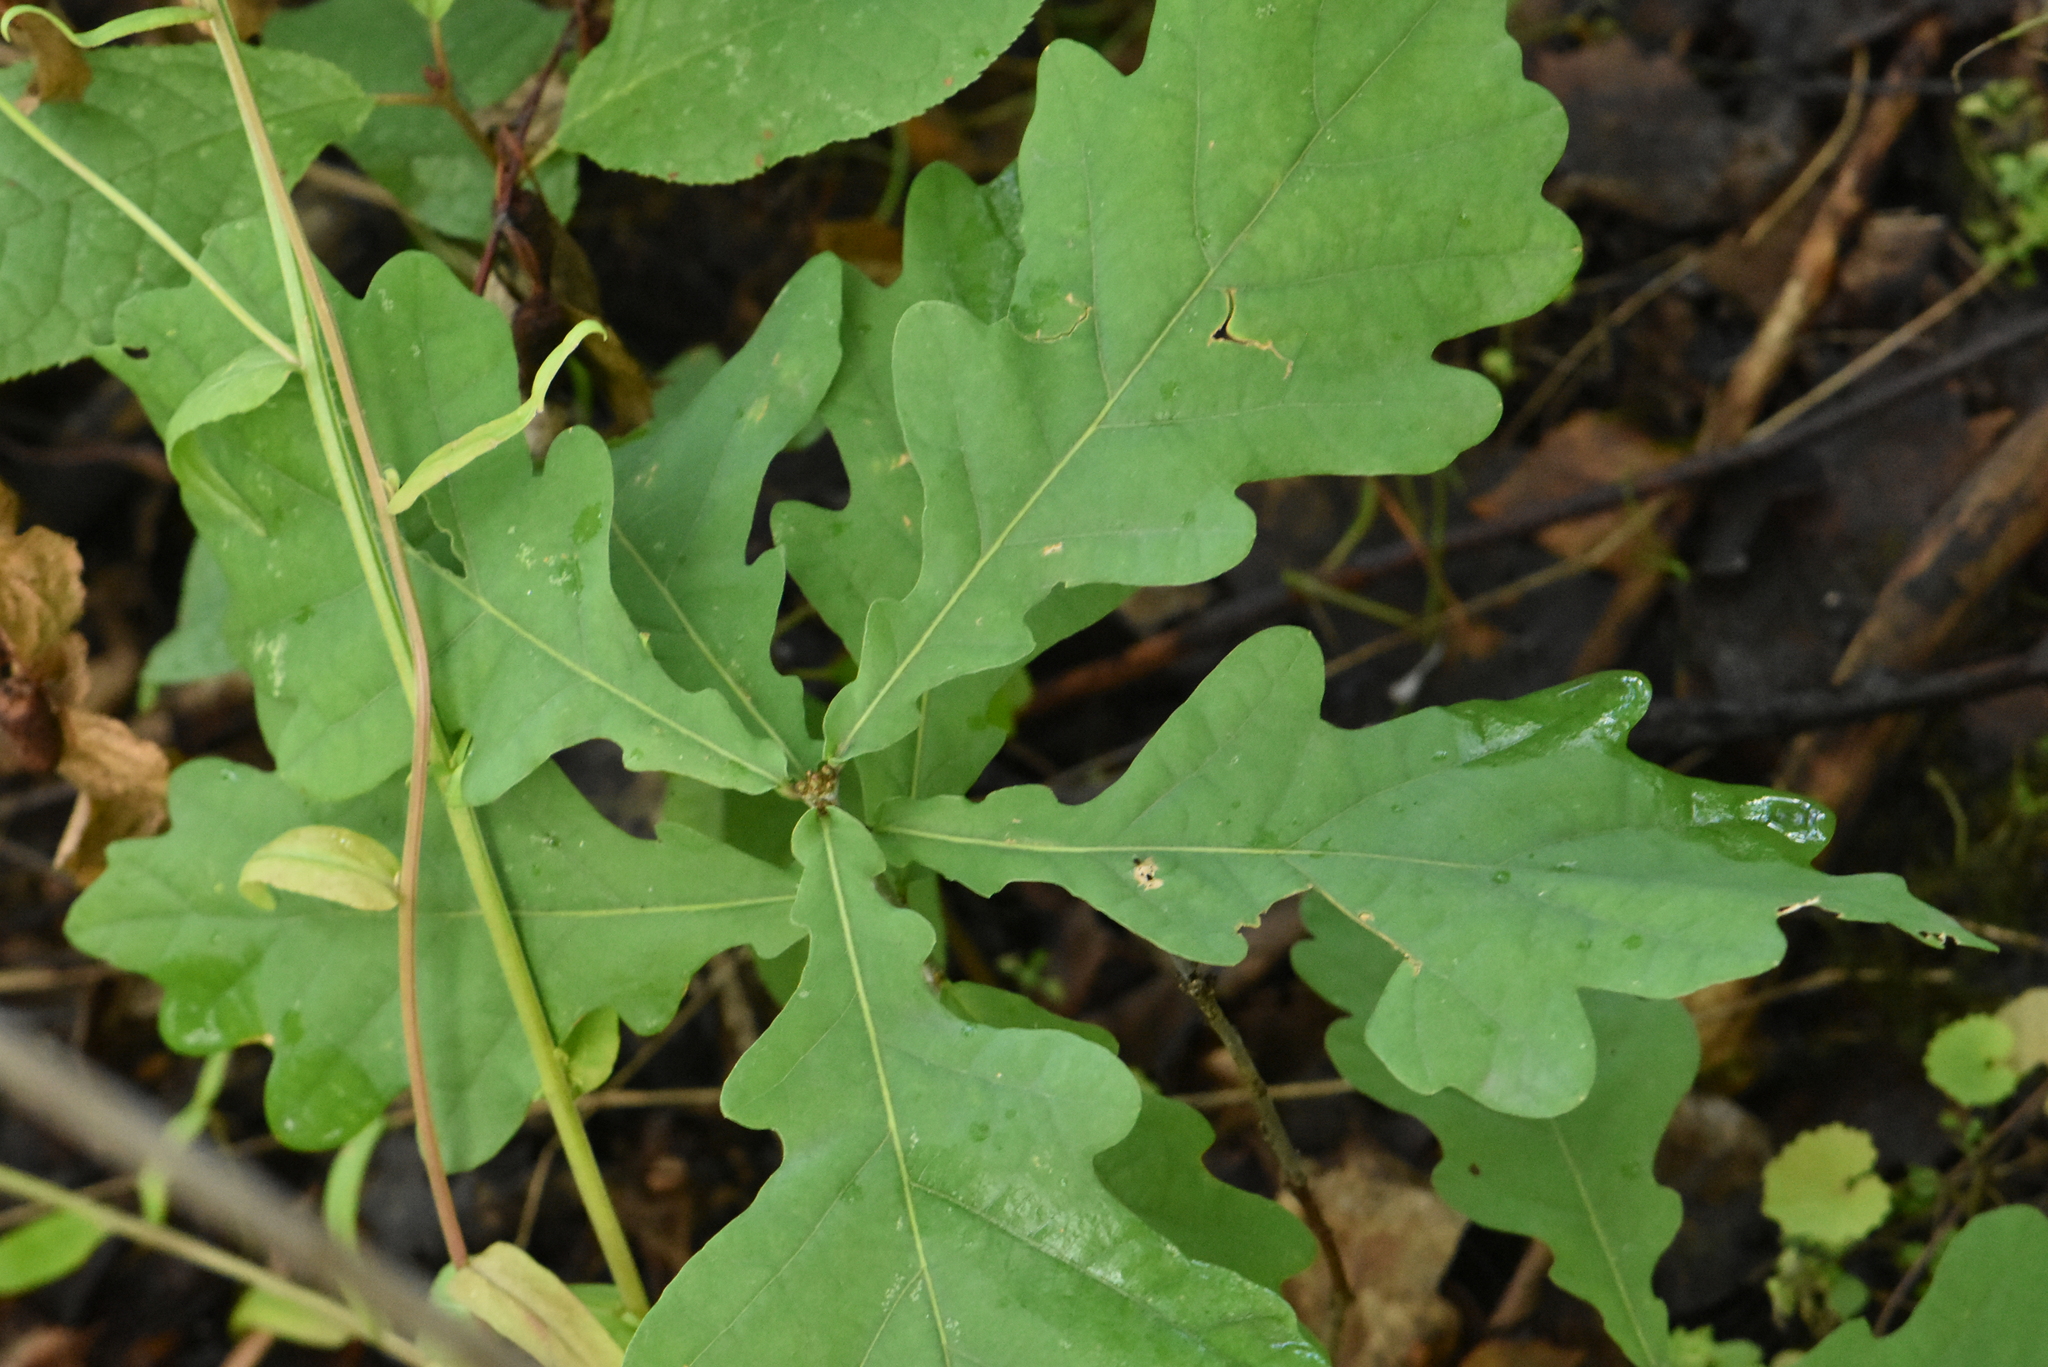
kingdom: Plantae
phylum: Tracheophyta
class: Magnoliopsida
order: Fagales
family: Fagaceae
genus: Quercus
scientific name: Quercus robur
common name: Pedunculate oak
